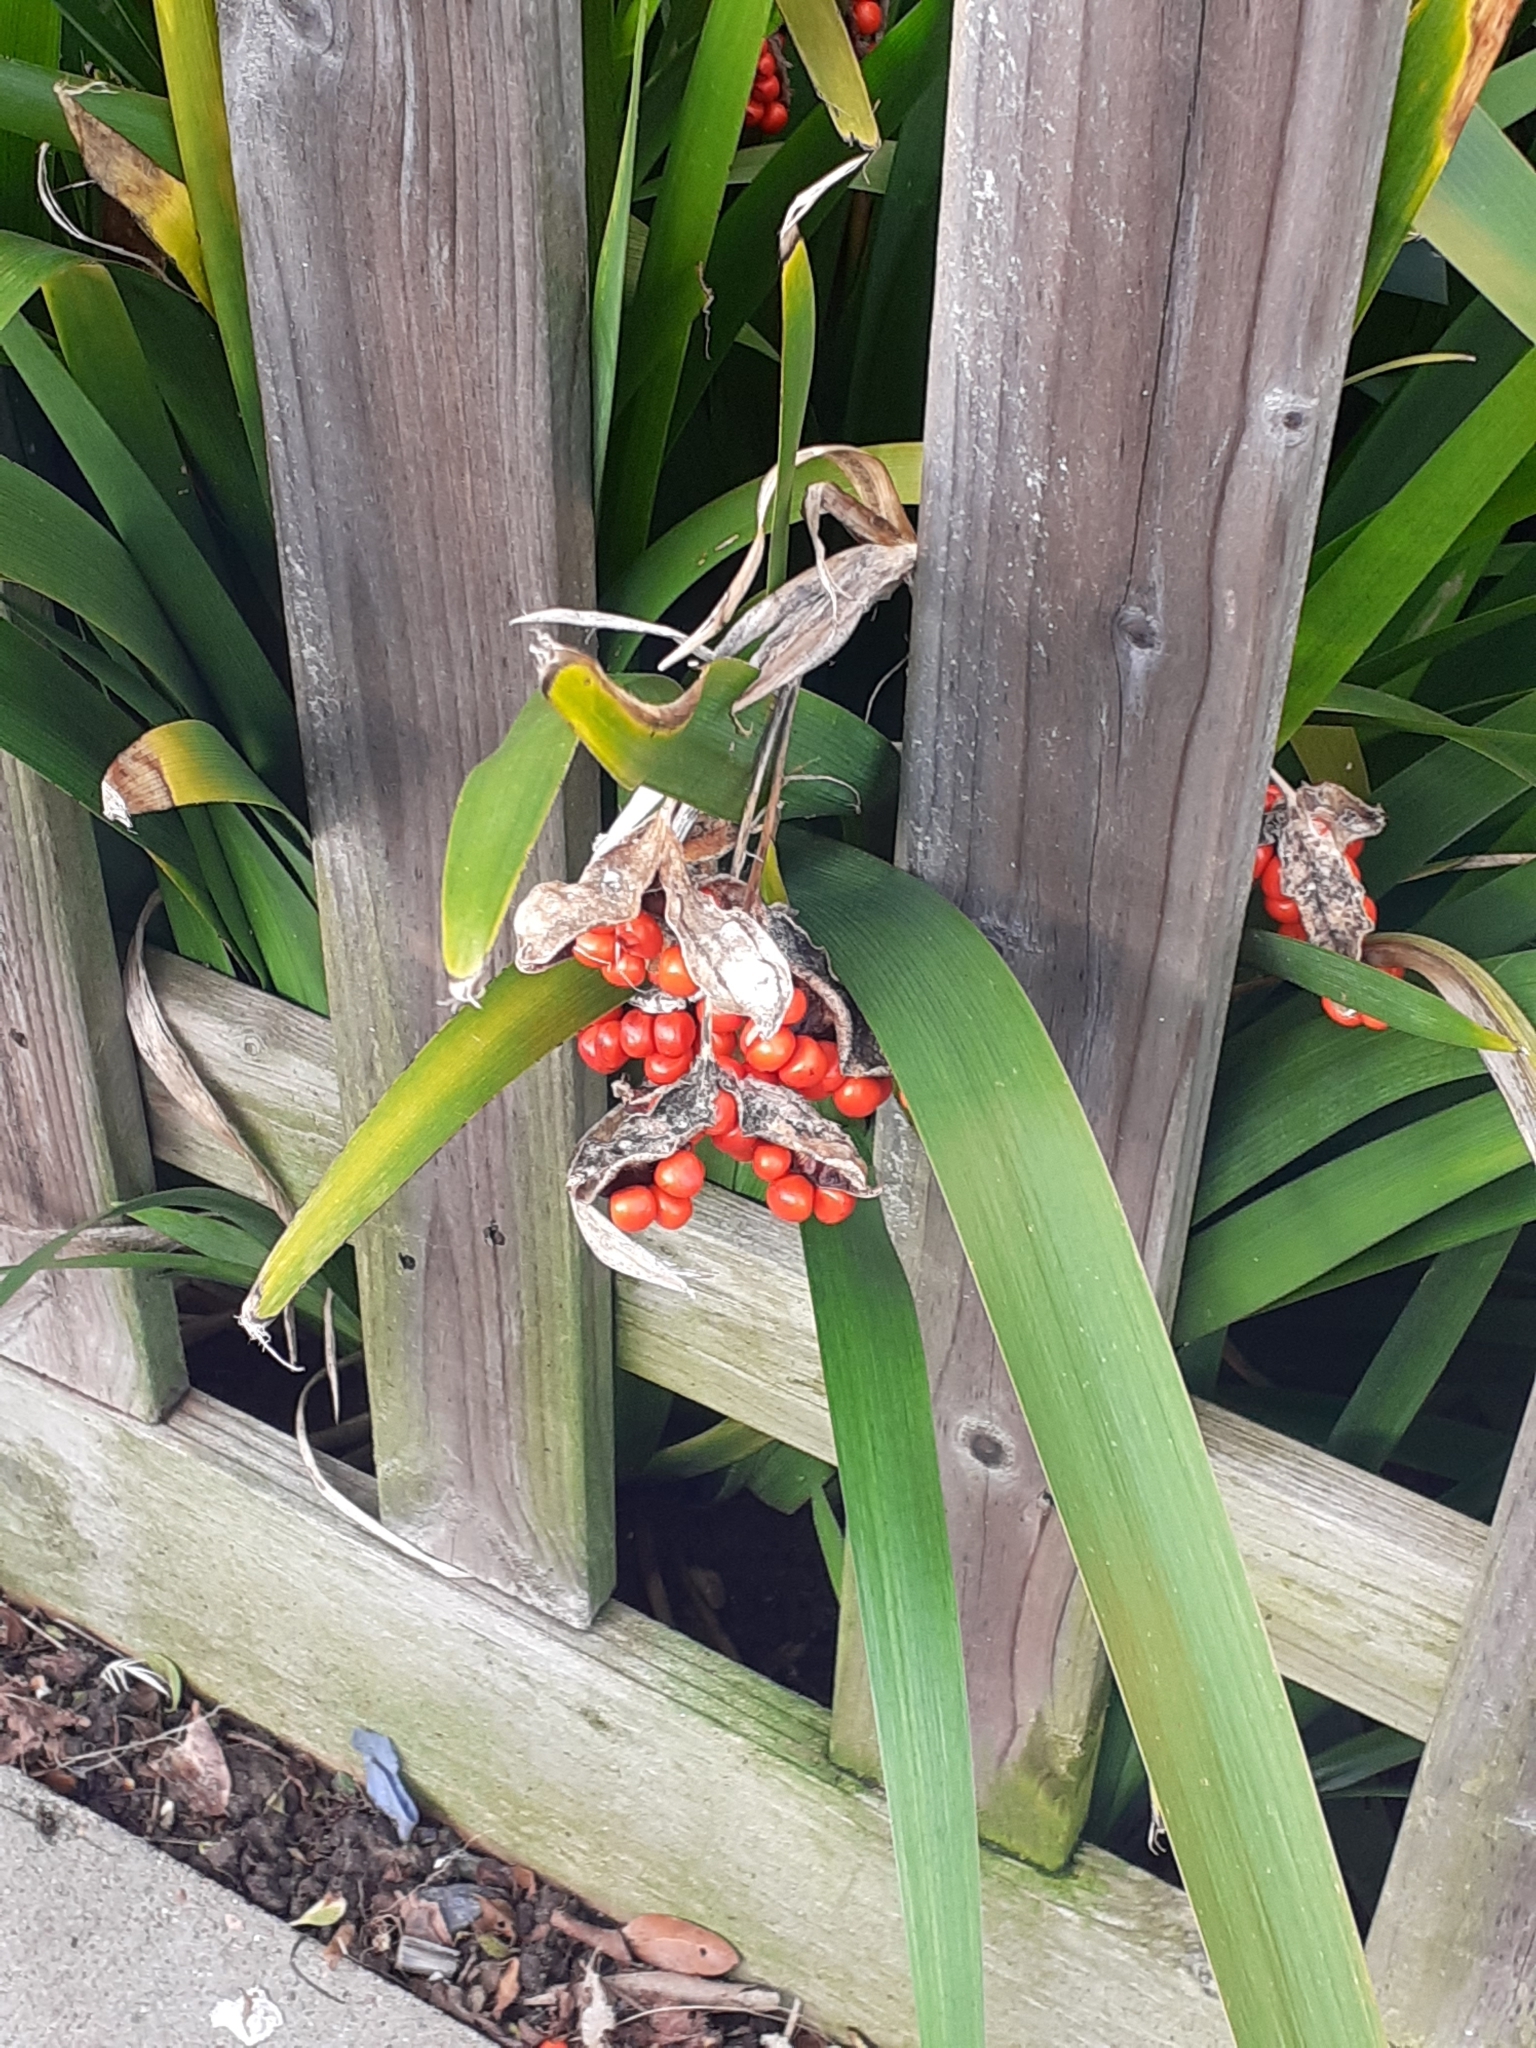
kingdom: Plantae
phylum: Tracheophyta
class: Liliopsida
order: Asparagales
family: Iridaceae
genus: Iris
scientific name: Iris foetidissima
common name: Stinking iris
